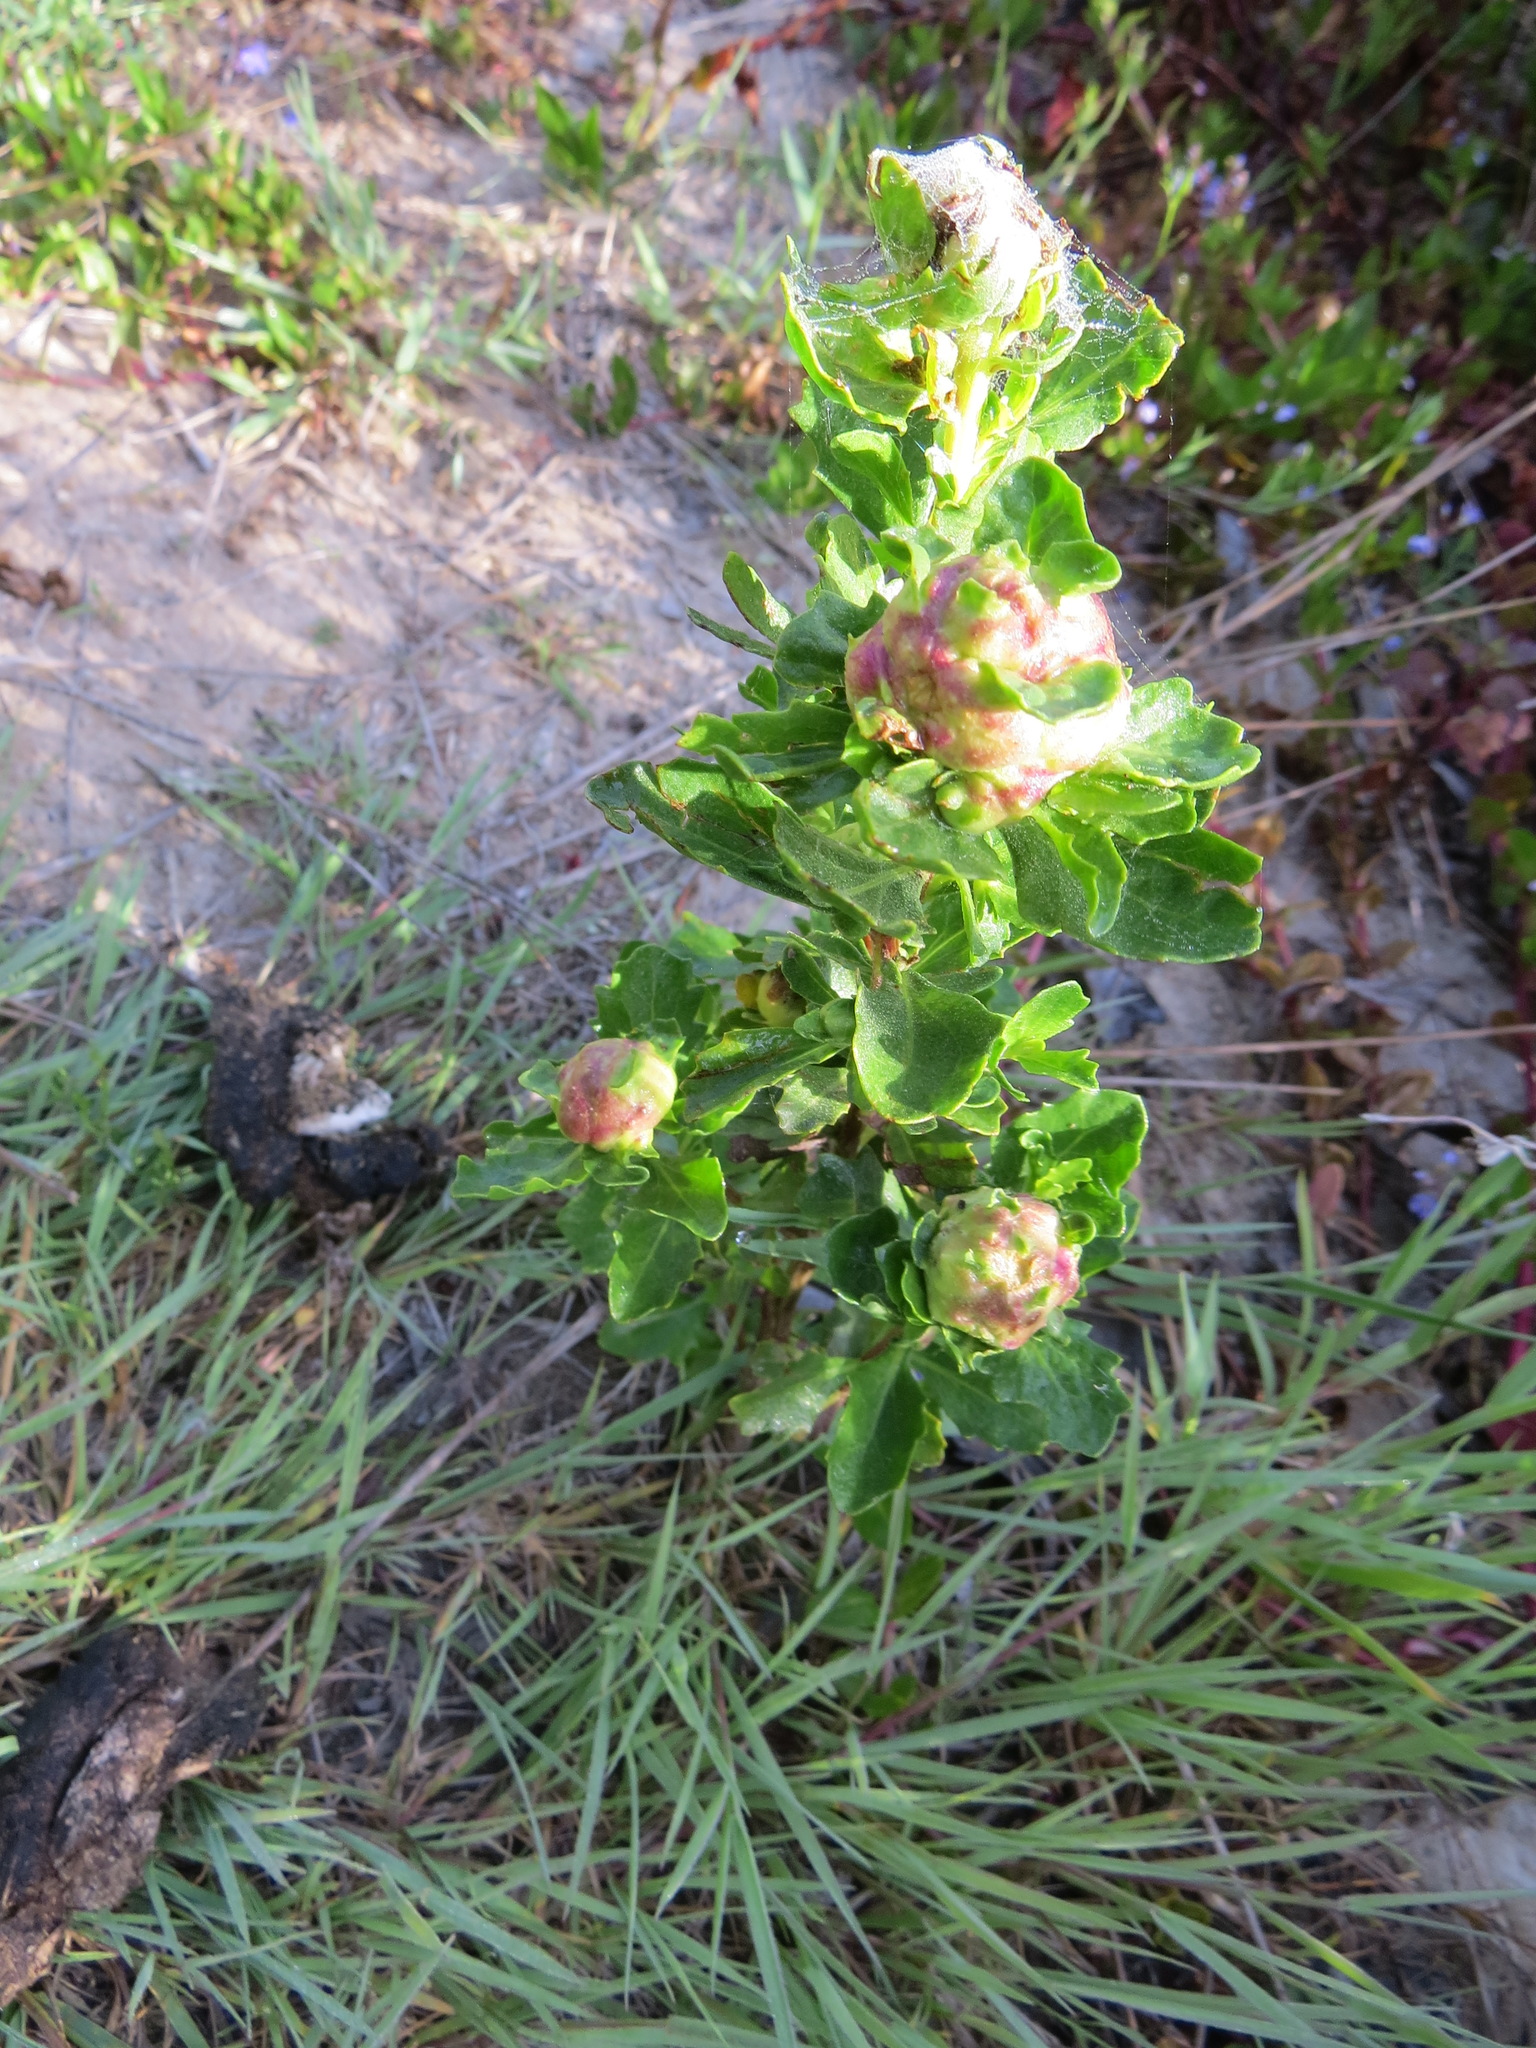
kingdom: Animalia
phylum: Arthropoda
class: Insecta
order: Diptera
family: Cecidomyiidae
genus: Rhopalomyia
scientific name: Rhopalomyia californica
